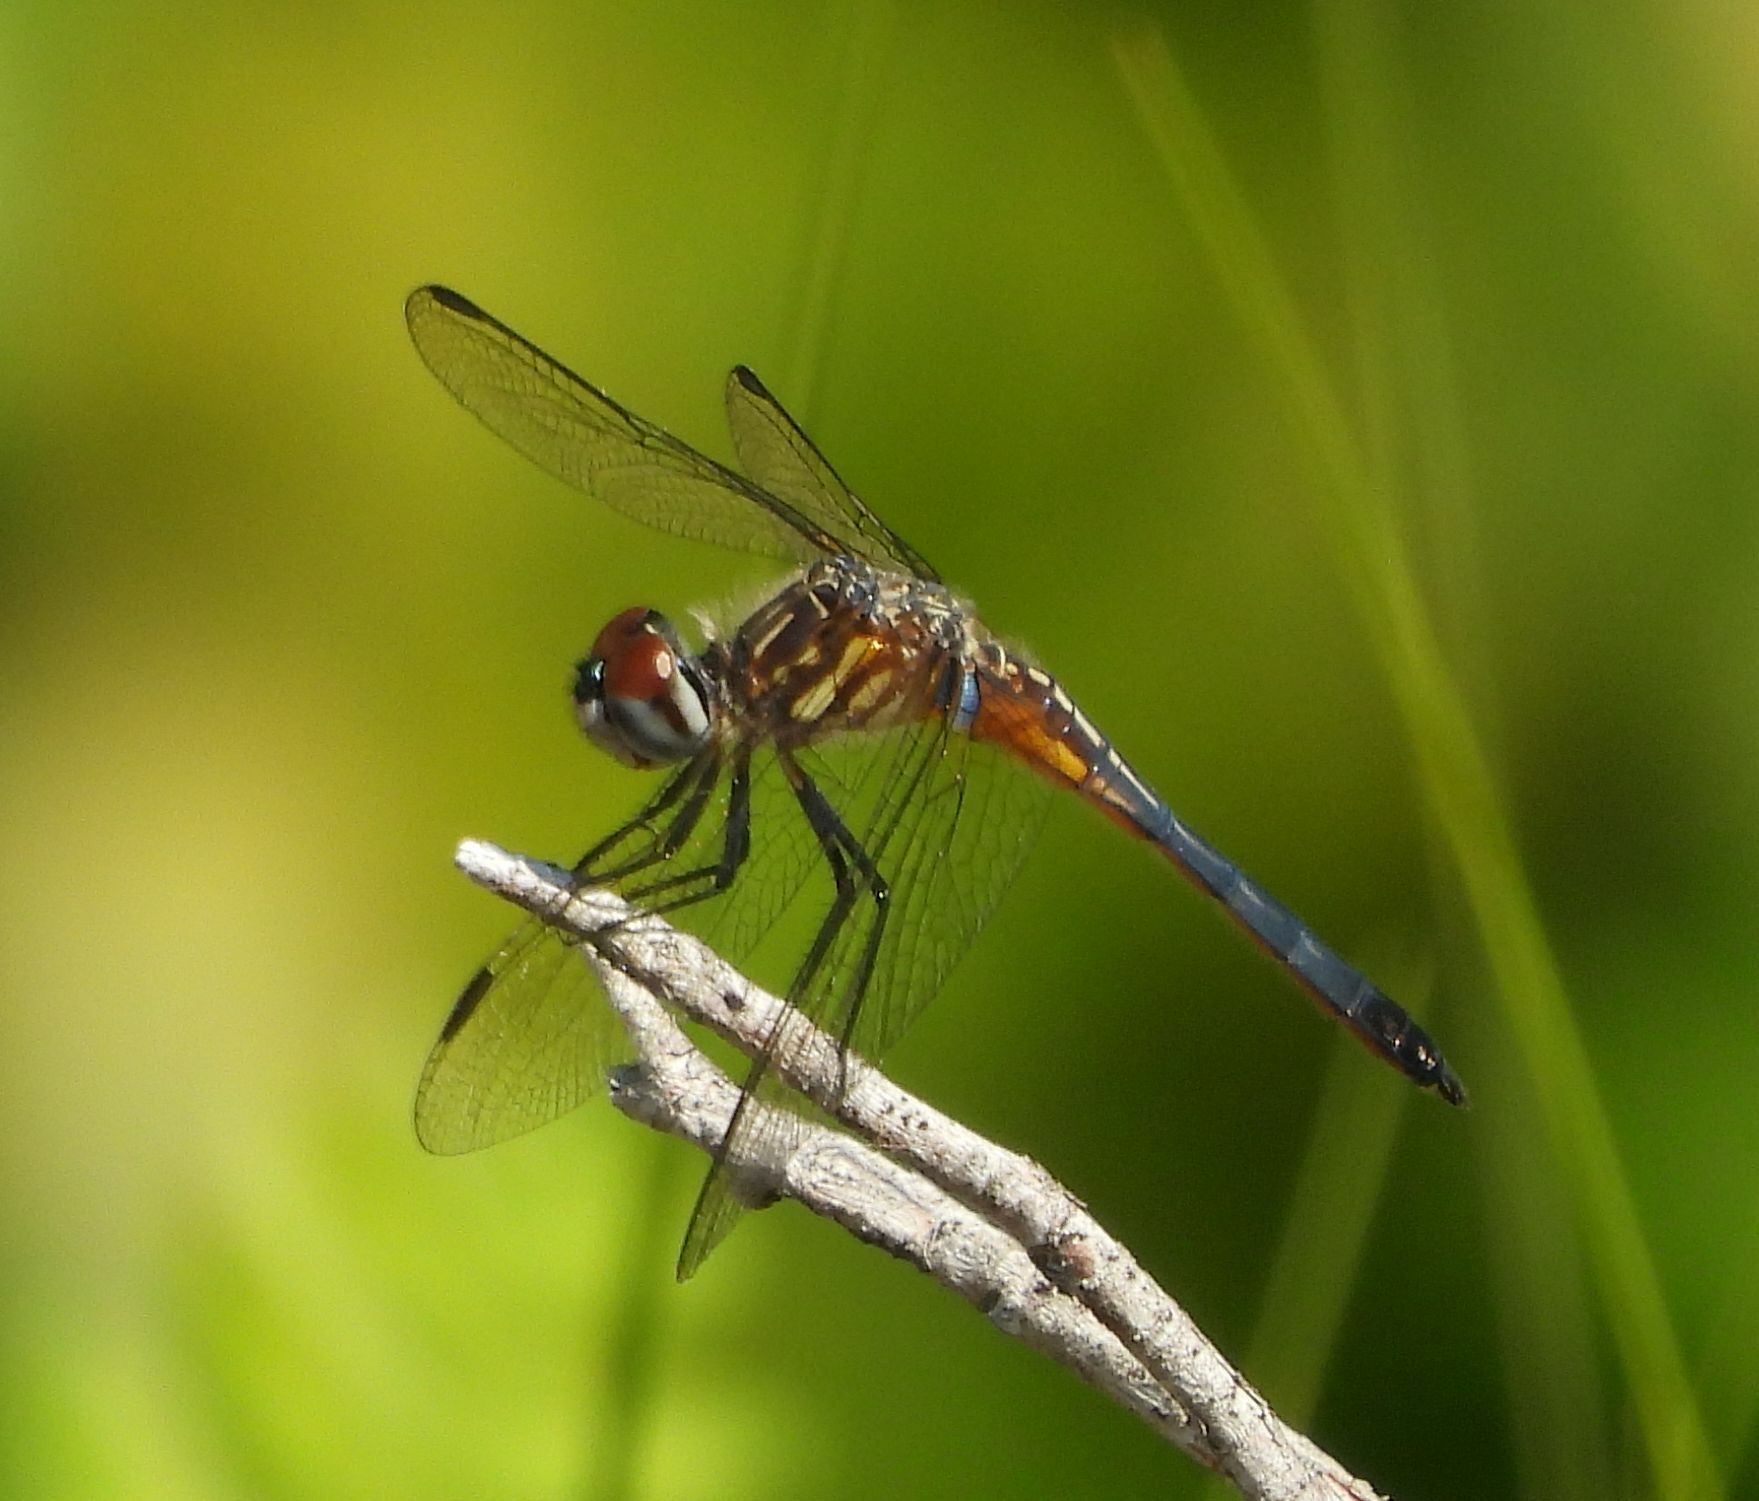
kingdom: Animalia
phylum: Arthropoda
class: Insecta
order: Odonata
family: Libellulidae
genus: Pachydiplax
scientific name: Pachydiplax longipennis
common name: Blue dasher
